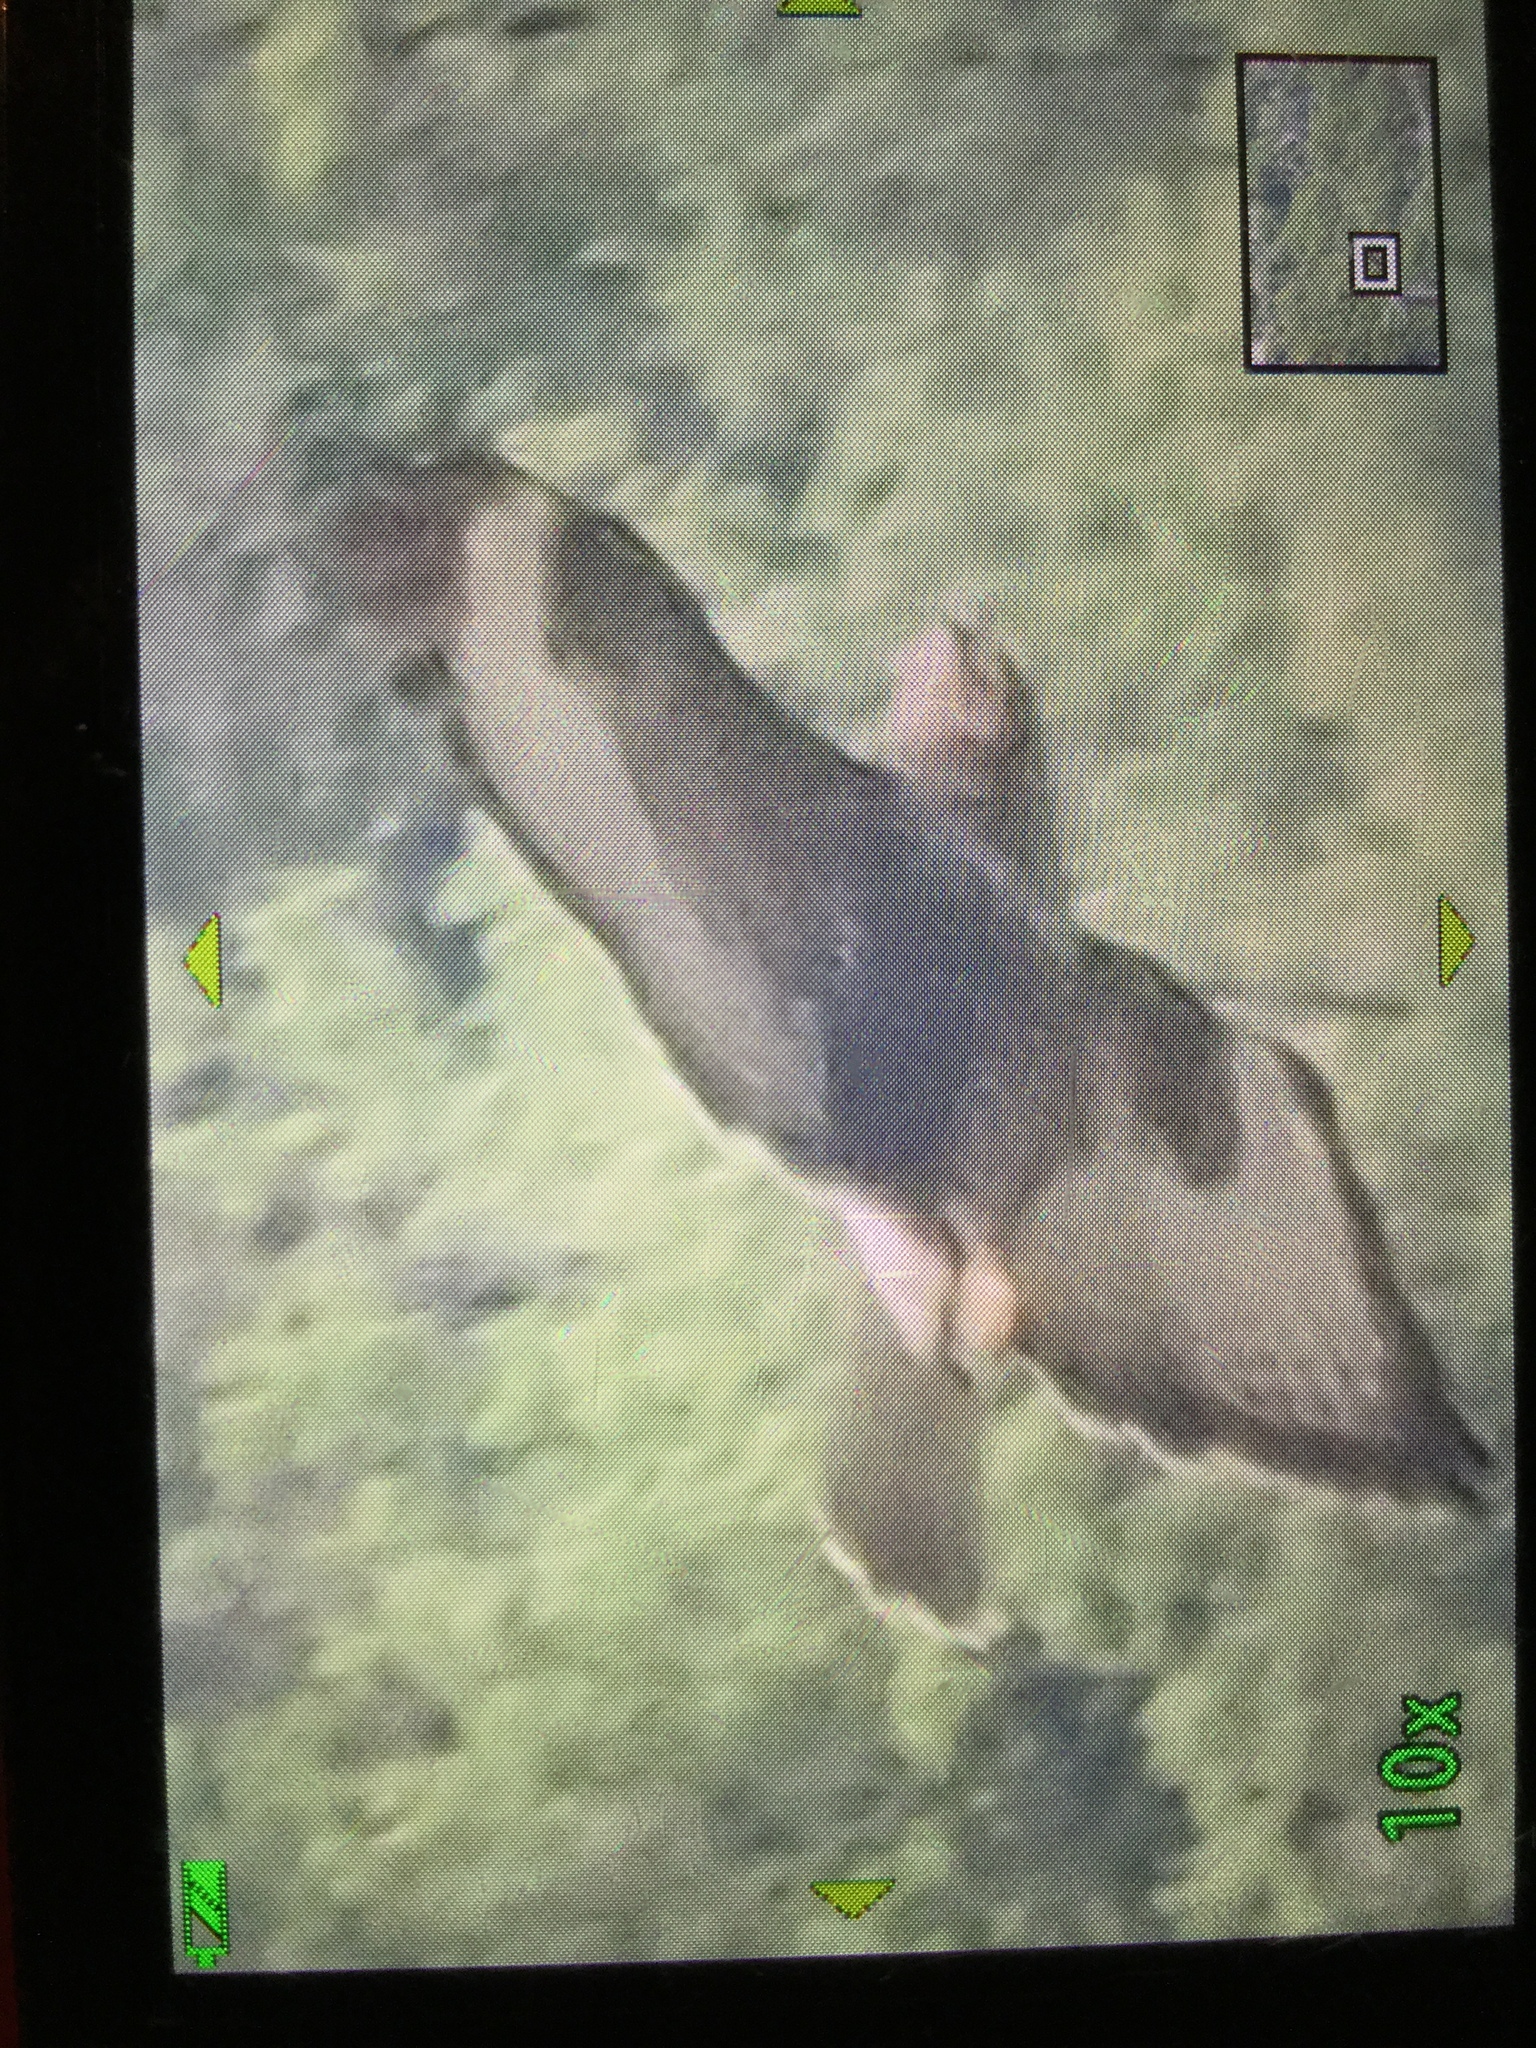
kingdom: Animalia
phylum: Chordata
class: Aves
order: Accipitriformes
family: Accipitridae
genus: Buteo
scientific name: Buteo buteo
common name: Common buzzard
